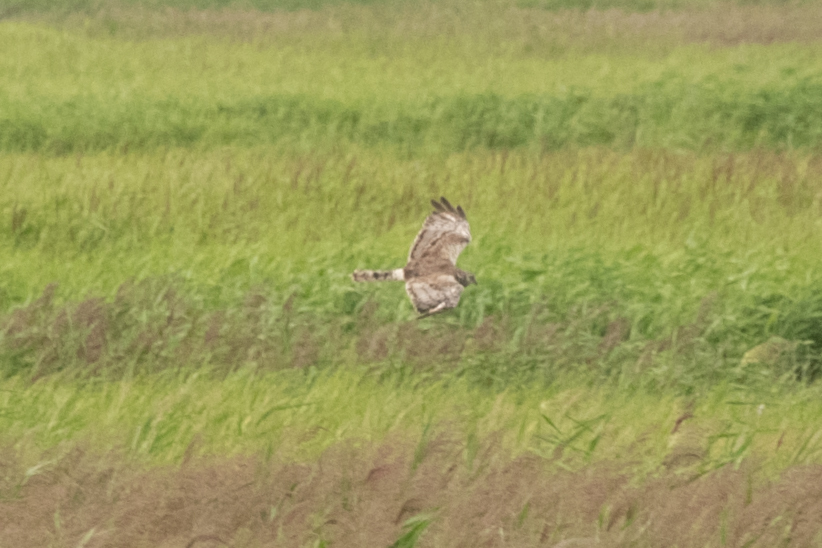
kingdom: Animalia
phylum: Chordata
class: Aves
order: Accipitriformes
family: Accipitridae
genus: Circus
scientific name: Circus spilonotus
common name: Eastern marsh-harrier
